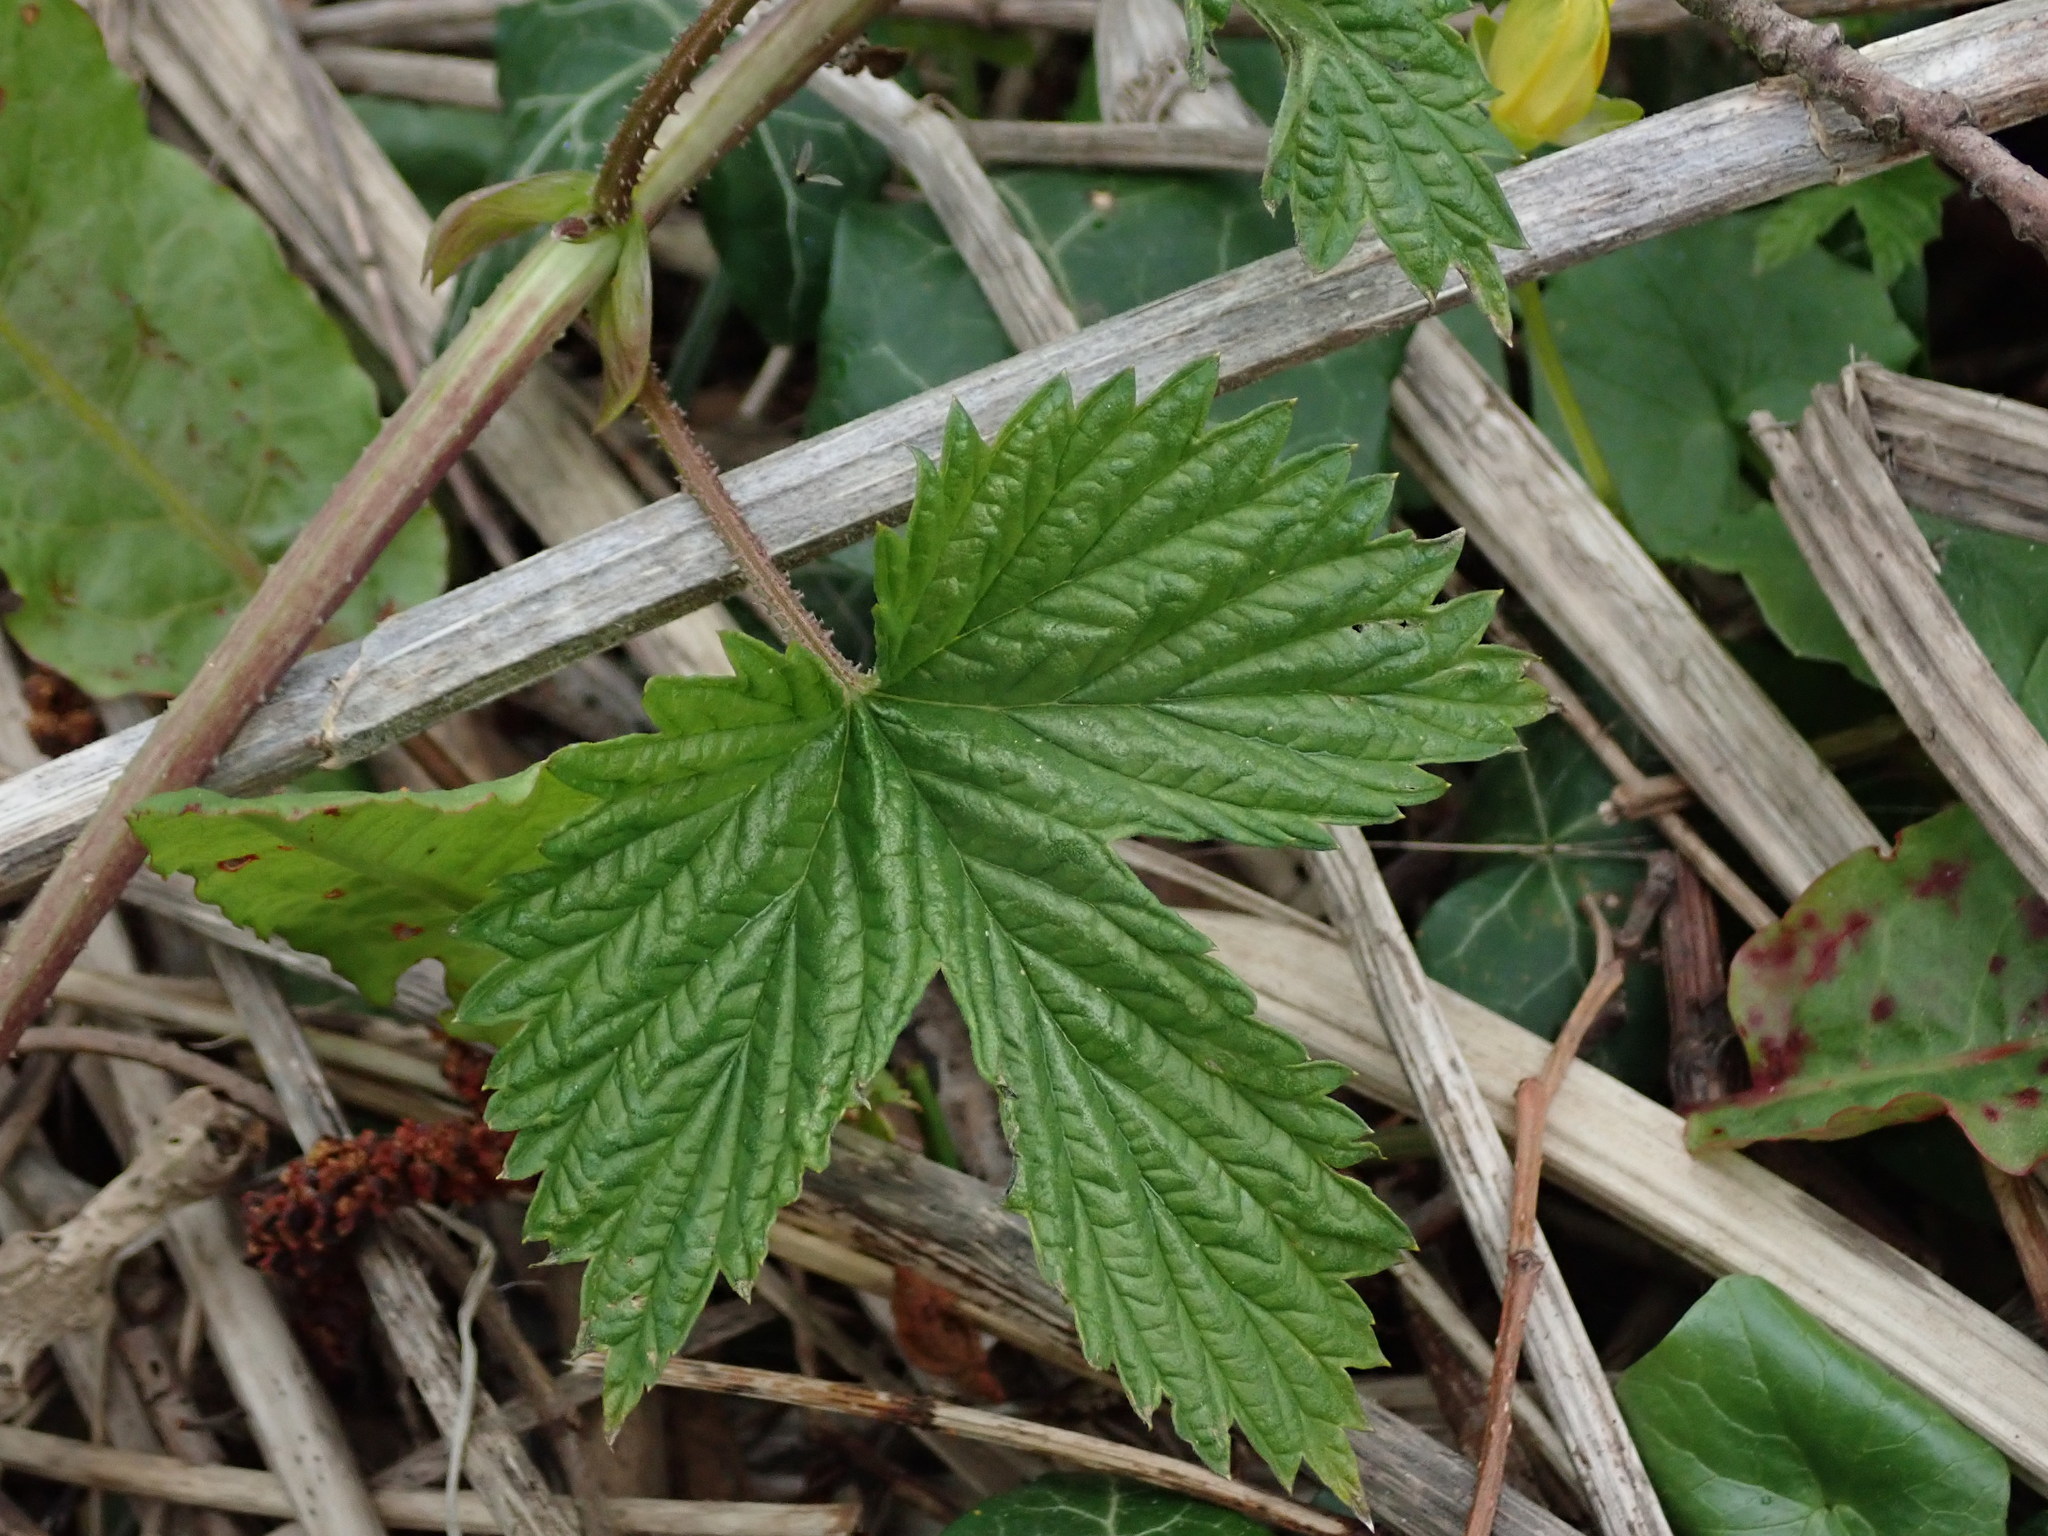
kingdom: Plantae
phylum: Tracheophyta
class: Magnoliopsida
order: Rosales
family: Cannabaceae
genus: Humulus
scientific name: Humulus lupulus
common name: Hop
